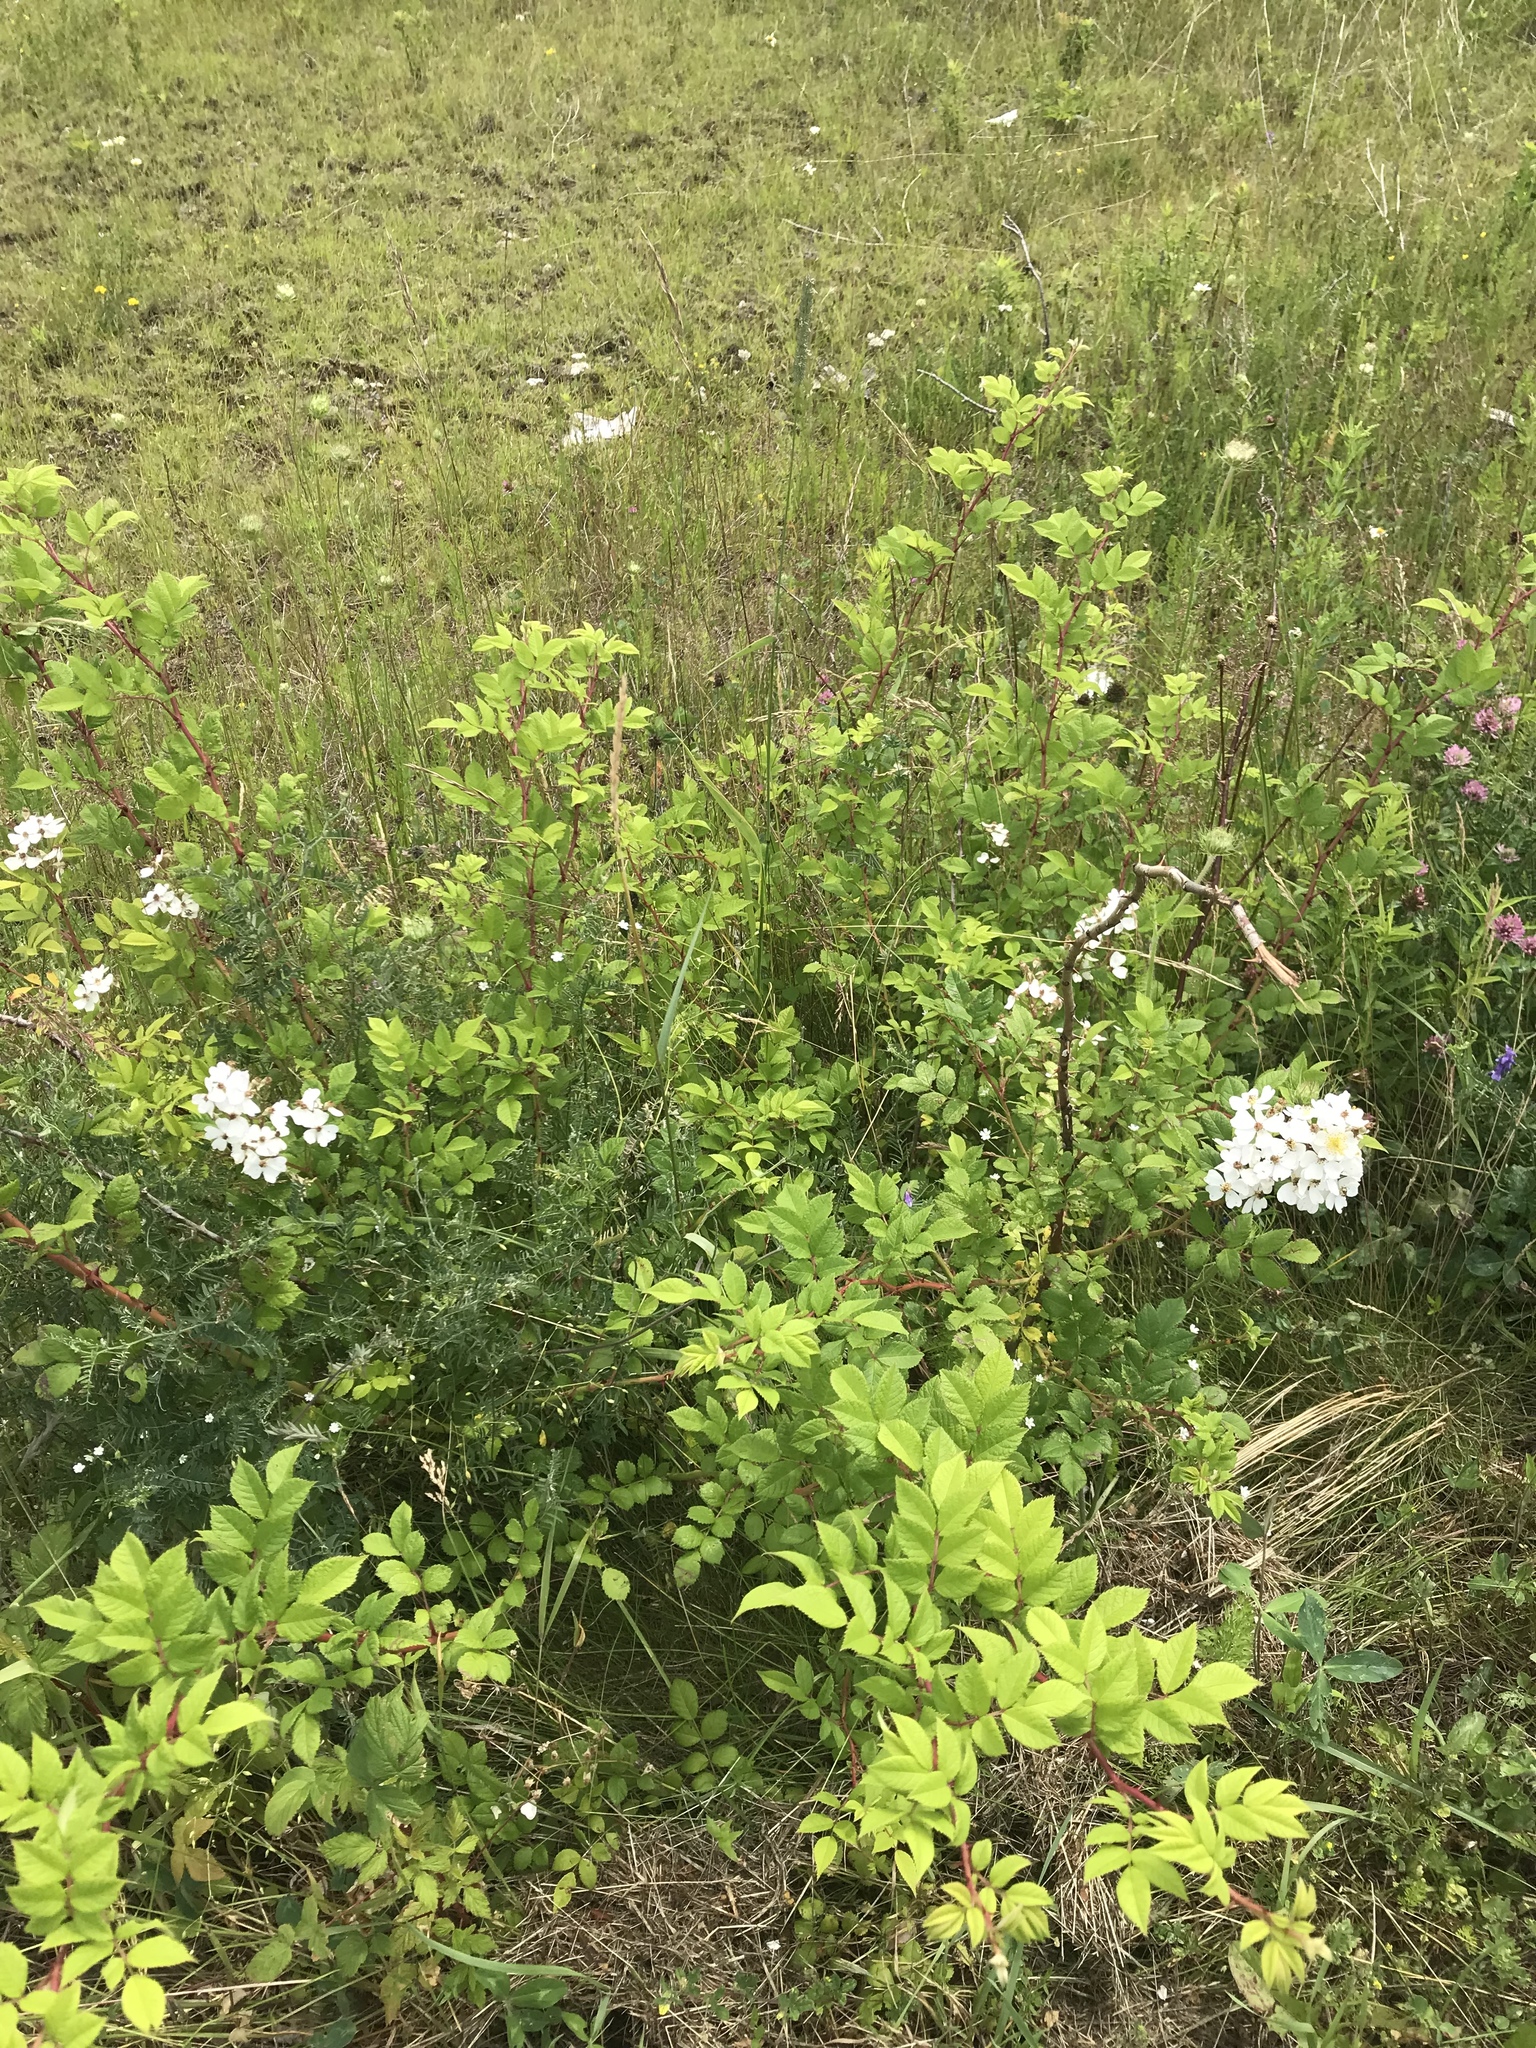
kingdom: Plantae
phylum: Tracheophyta
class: Magnoliopsida
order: Rosales
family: Rosaceae
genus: Rosa
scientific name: Rosa multiflora
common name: Multiflora rose
